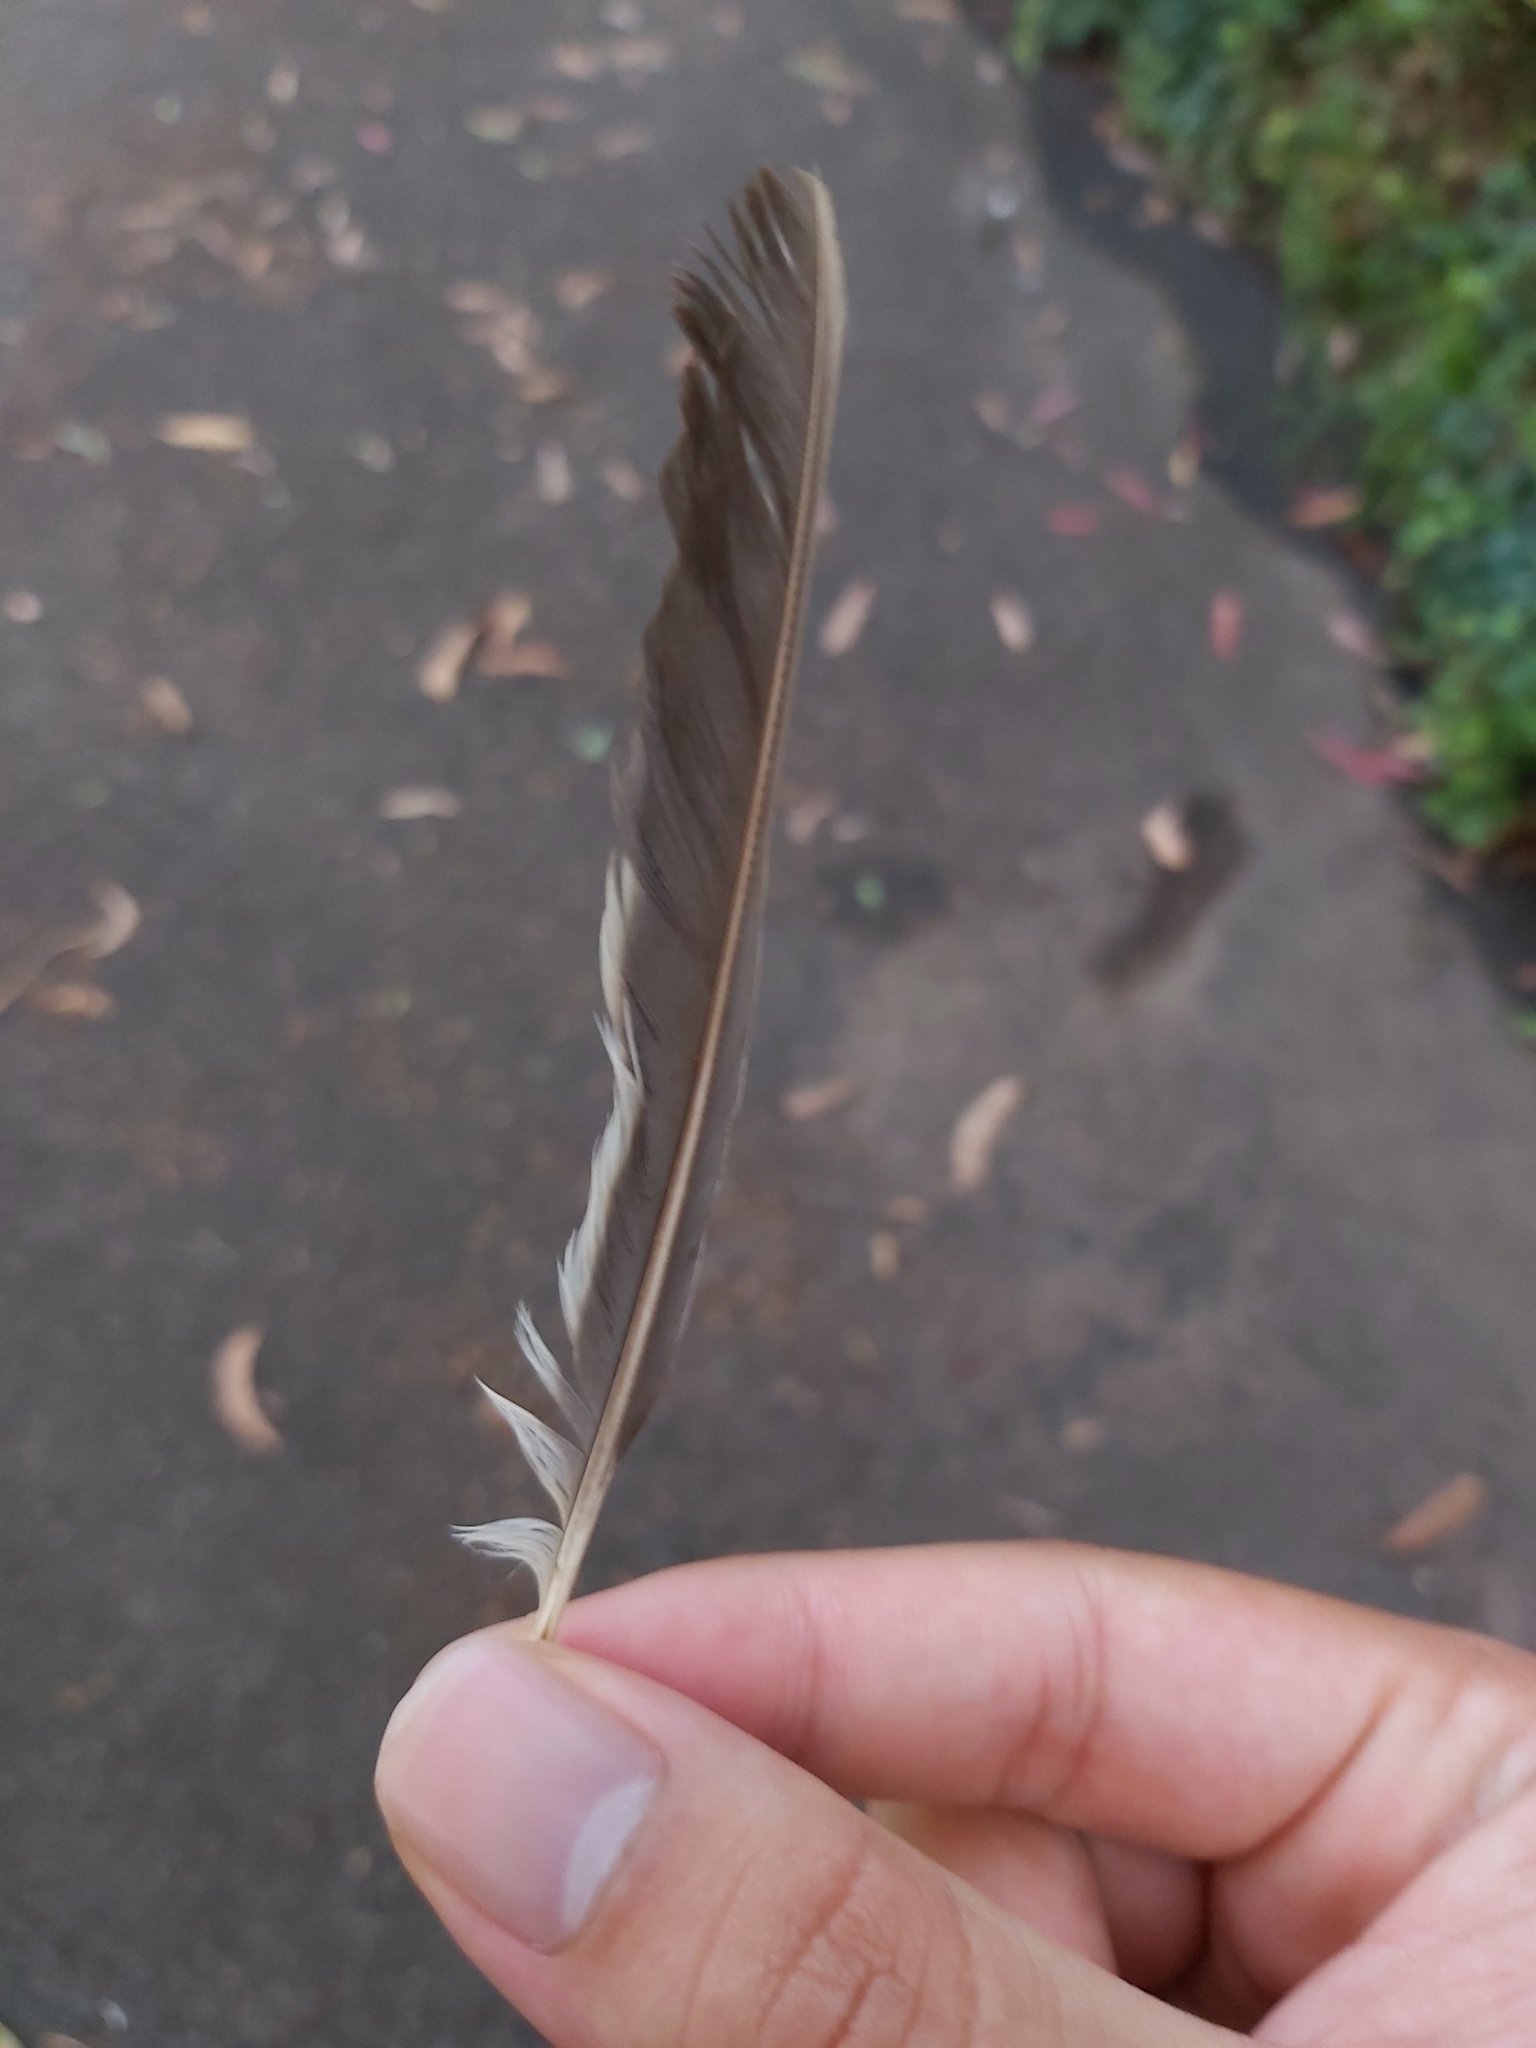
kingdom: Animalia
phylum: Chordata
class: Aves
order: Passeriformes
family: Meliphagidae
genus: Manorina
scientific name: Manorina melanocephala
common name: Noisy miner
